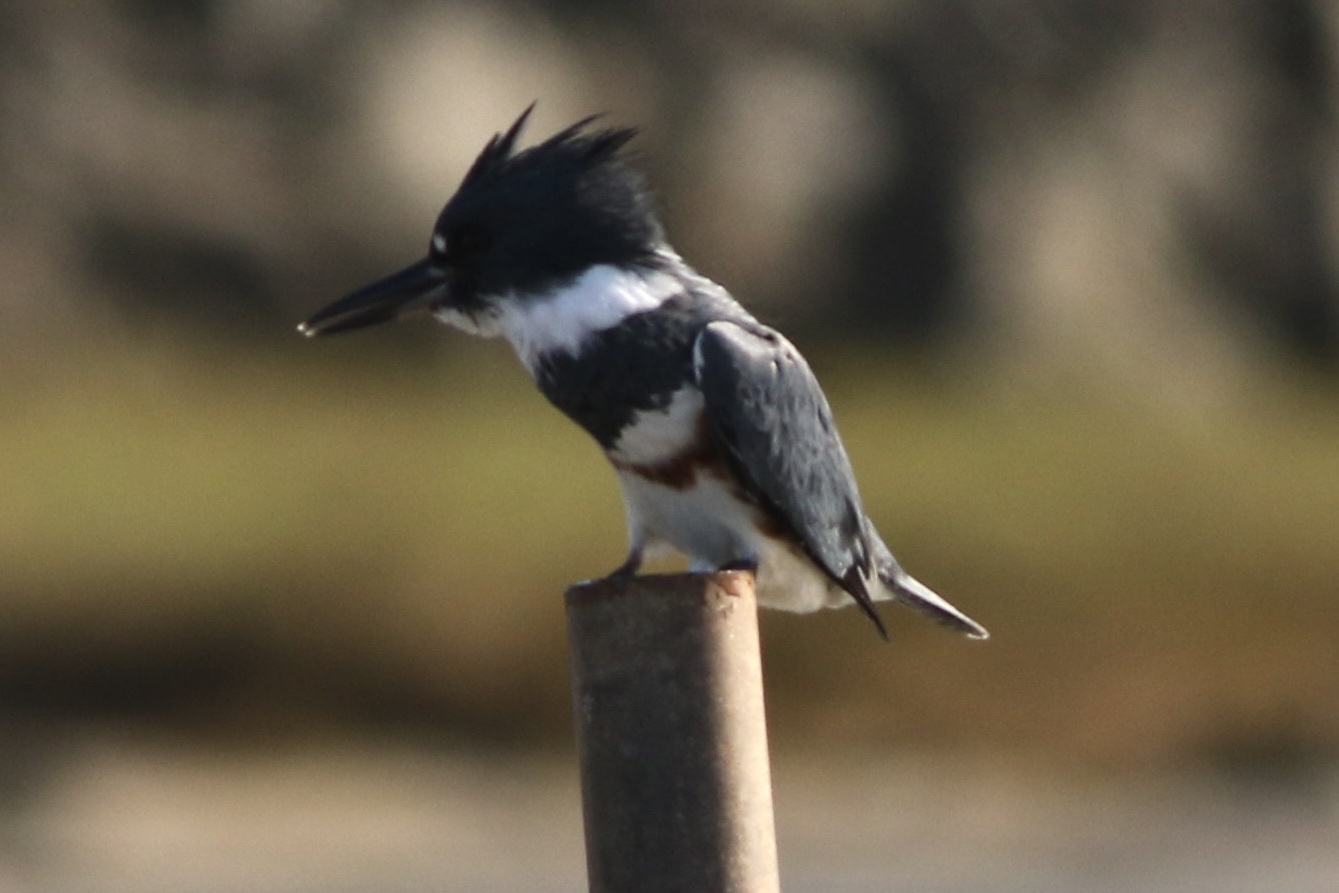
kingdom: Animalia
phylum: Chordata
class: Aves
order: Coraciiformes
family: Alcedinidae
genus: Megaceryle
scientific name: Megaceryle alcyon
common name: Belted kingfisher
